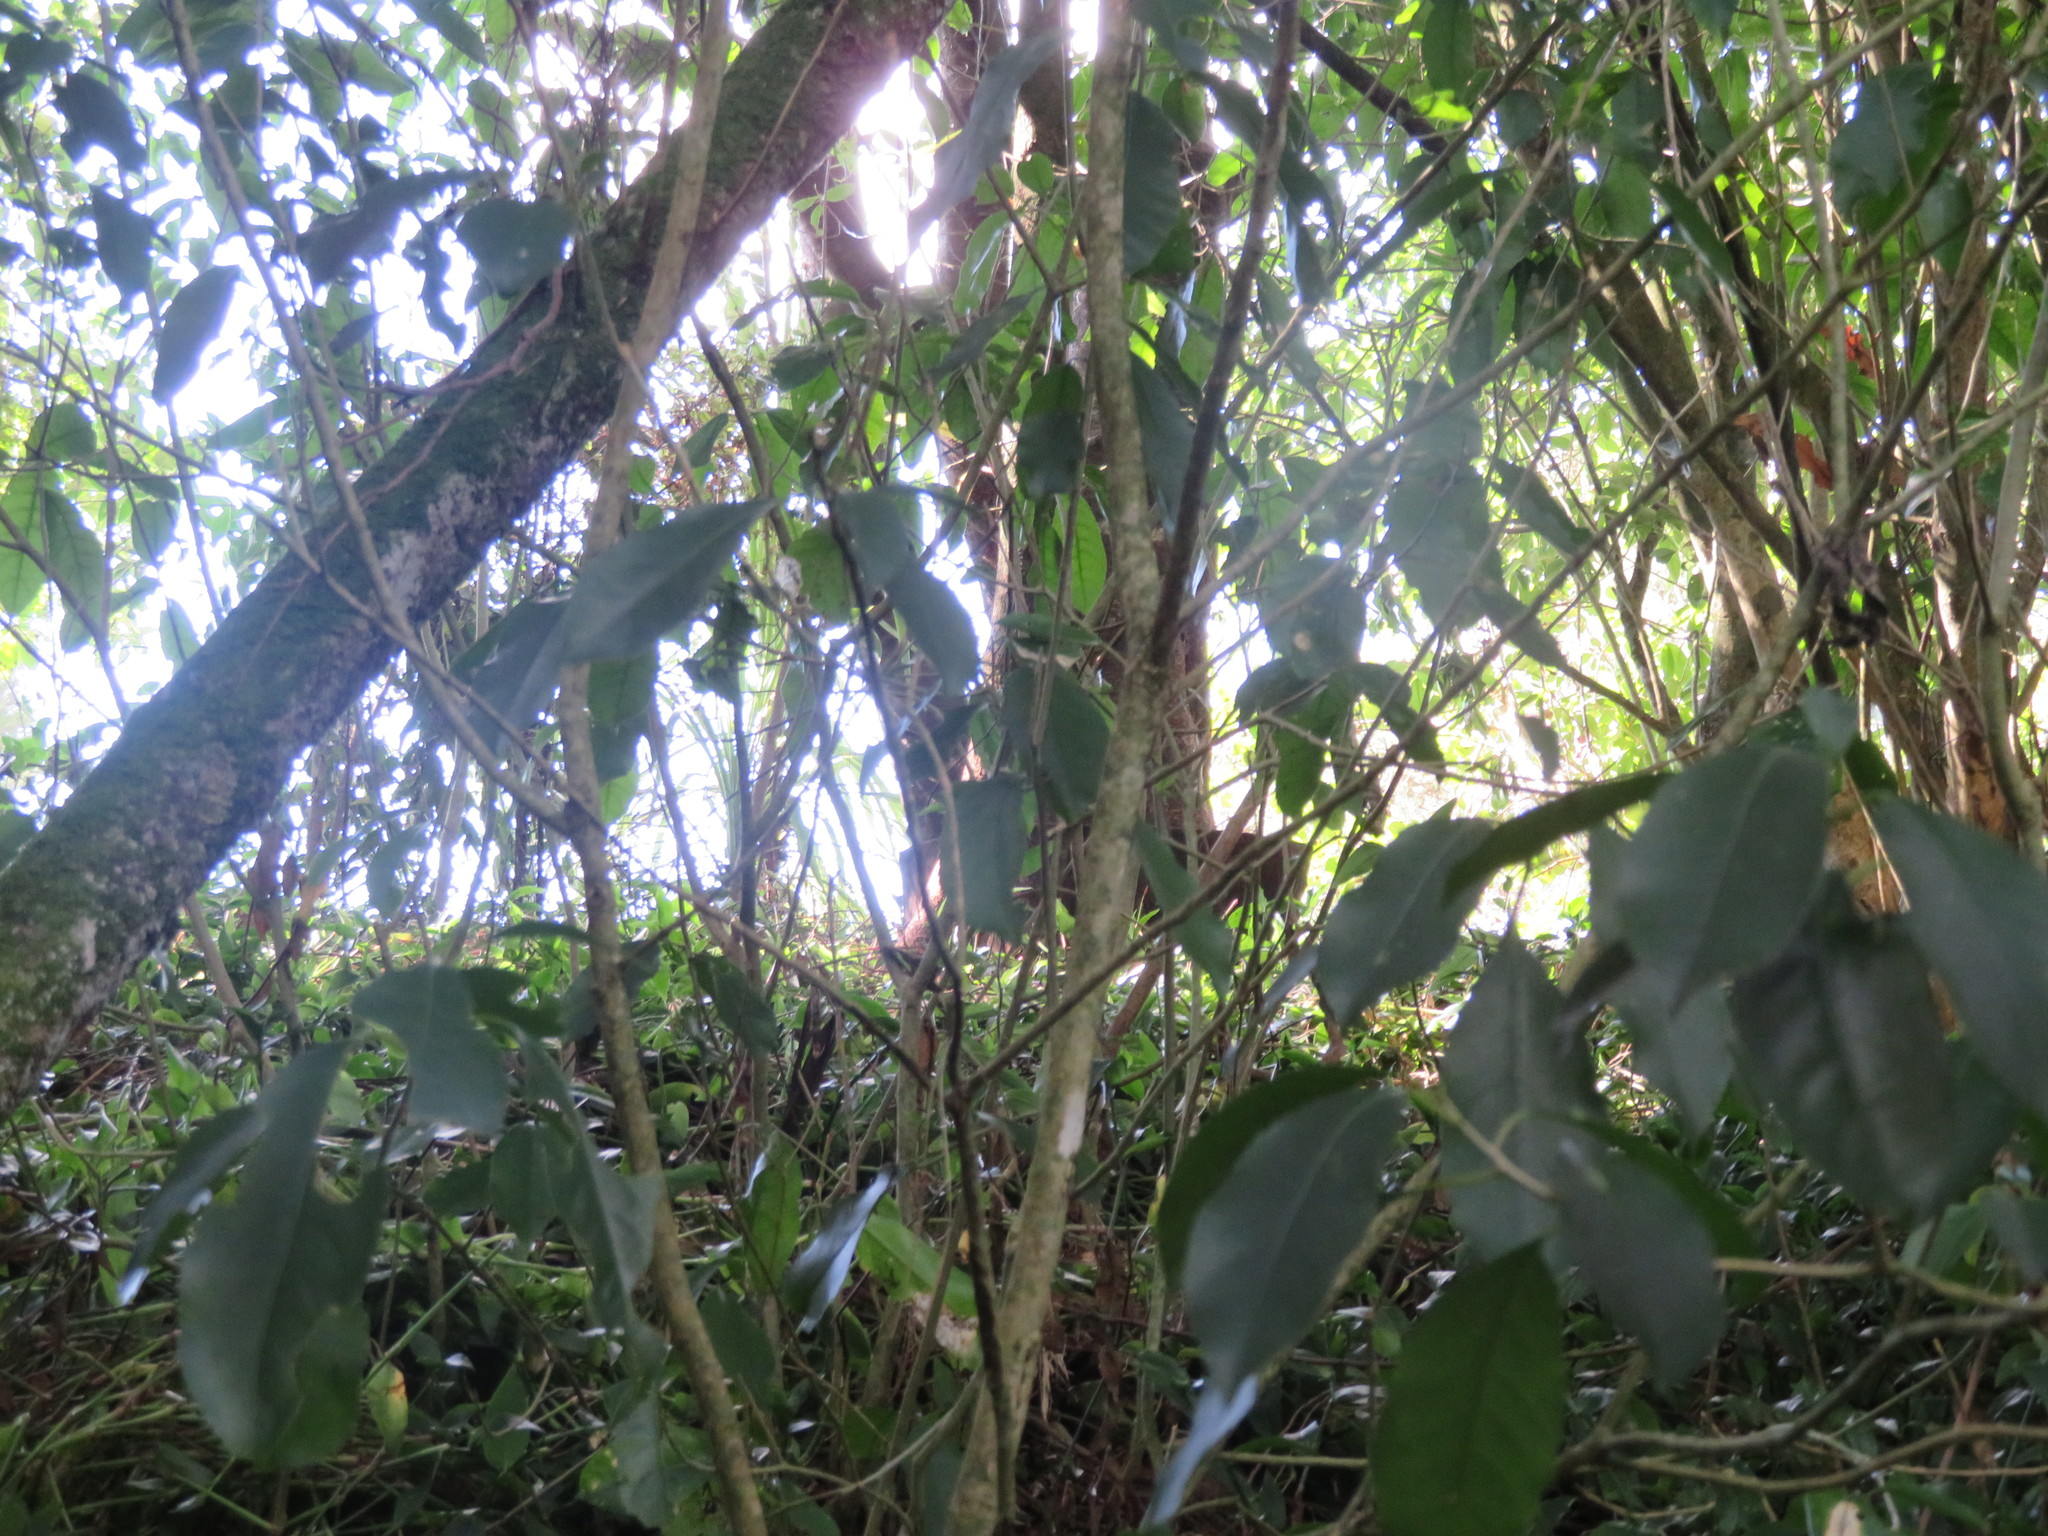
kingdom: Plantae
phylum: Tracheophyta
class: Magnoliopsida
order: Malpighiales
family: Violaceae
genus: Melicytus
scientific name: Melicytus ramiflorus
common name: Mahoe
